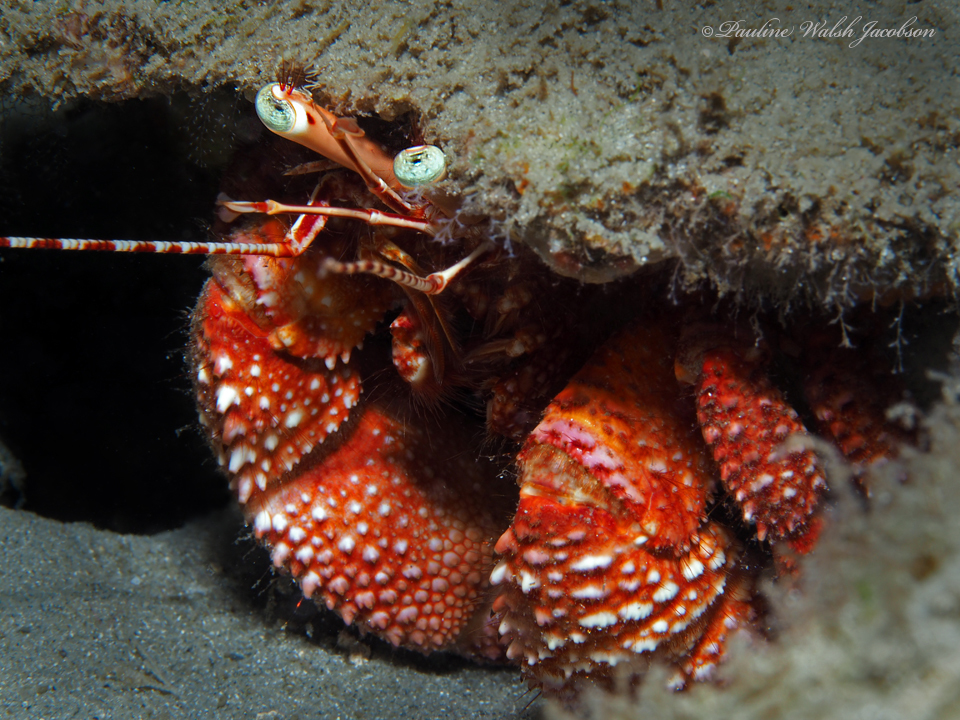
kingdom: Animalia
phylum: Arthropoda
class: Malacostraca
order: Decapoda
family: Diogenidae
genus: Petrochirus
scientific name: Petrochirus diogenes
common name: Giant hermit crab
